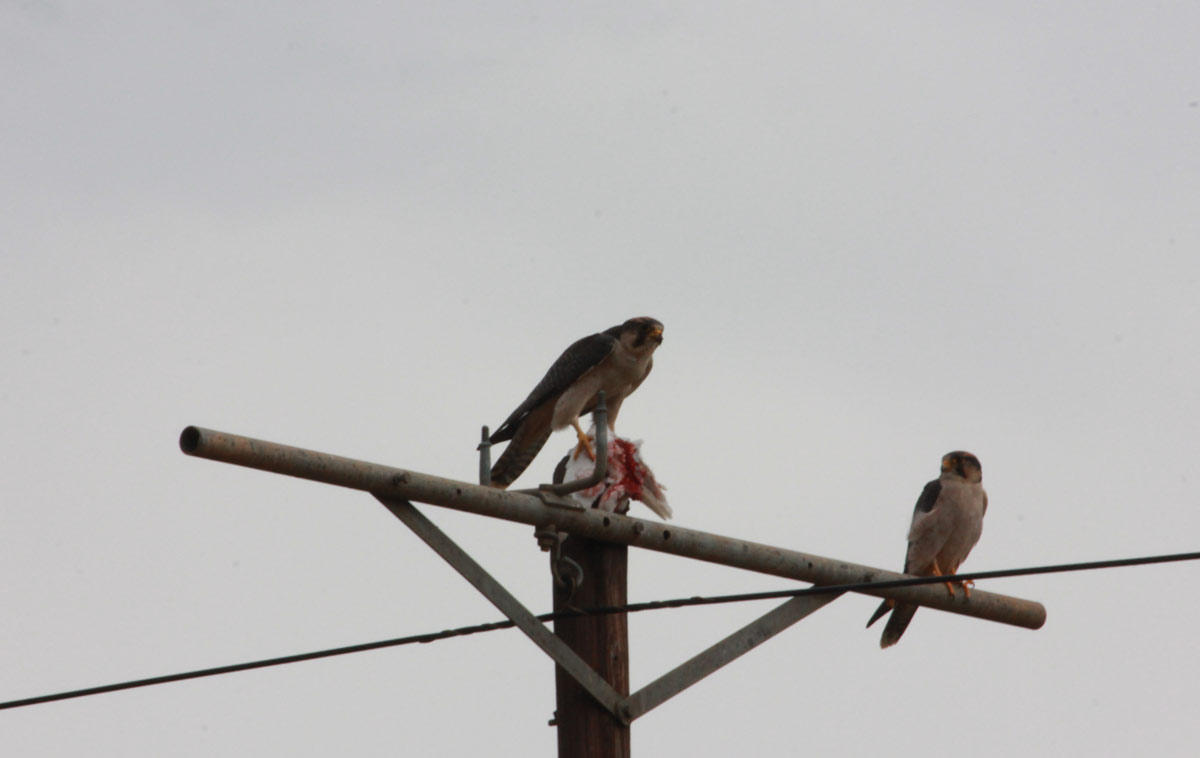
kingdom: Animalia
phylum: Chordata
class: Aves
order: Falconiformes
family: Falconidae
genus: Falco
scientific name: Falco biarmicus
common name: Lanner falcon
